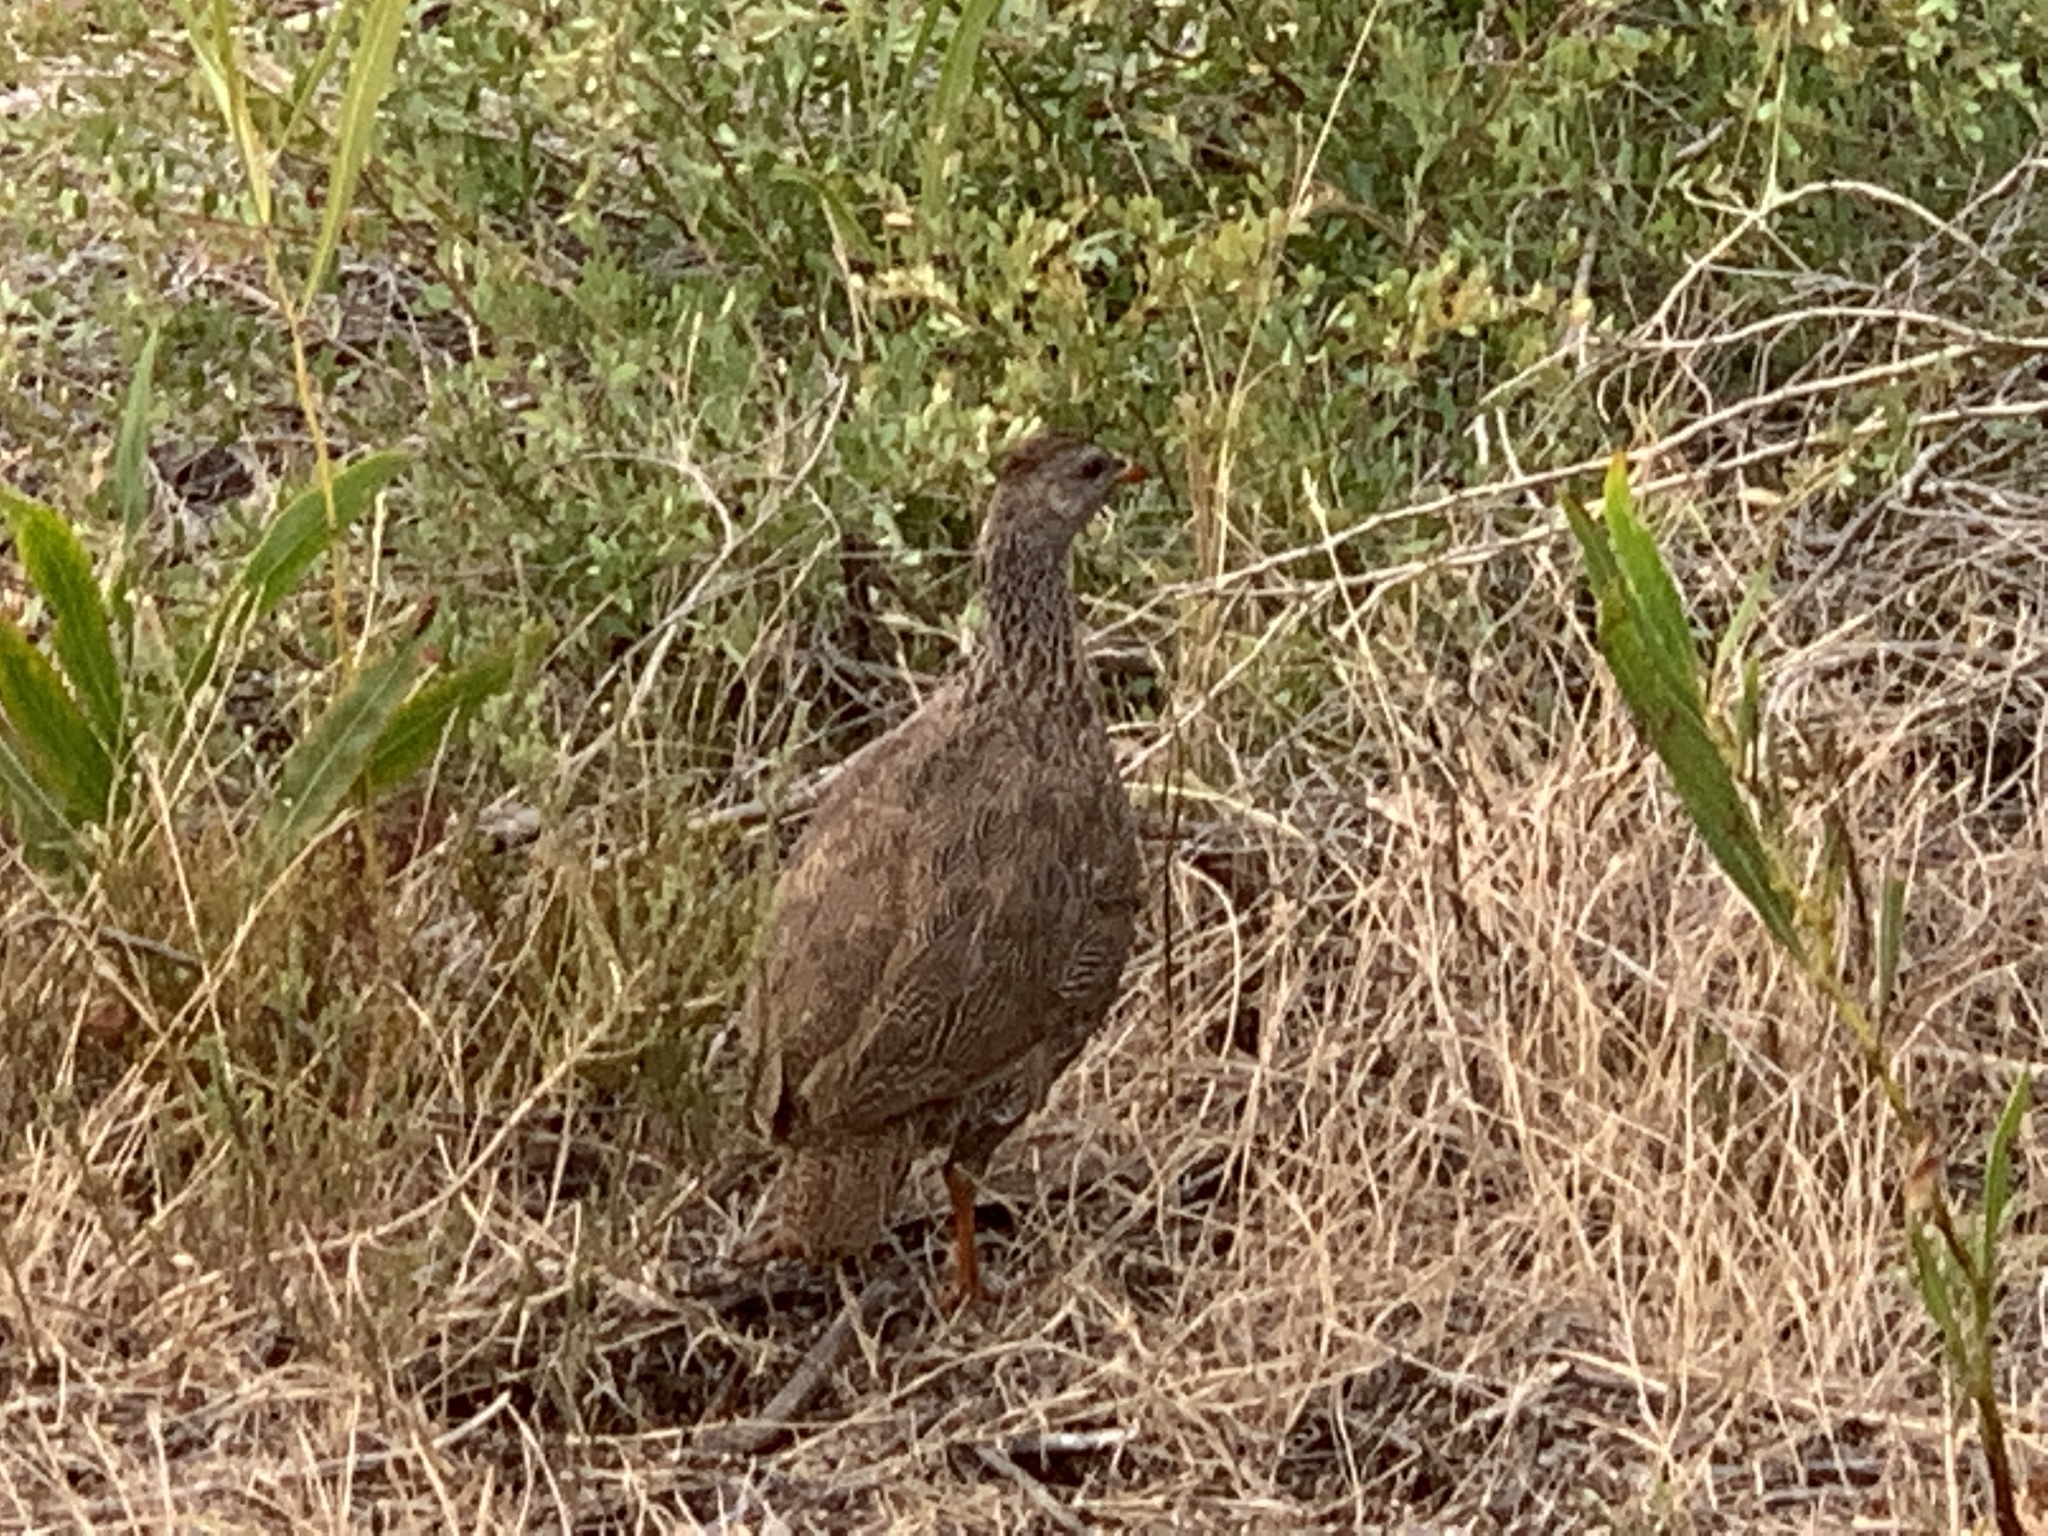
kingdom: Animalia
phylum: Chordata
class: Aves
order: Galliformes
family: Phasianidae
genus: Pternistis
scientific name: Pternistis capensis
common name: Cape spurfowl
